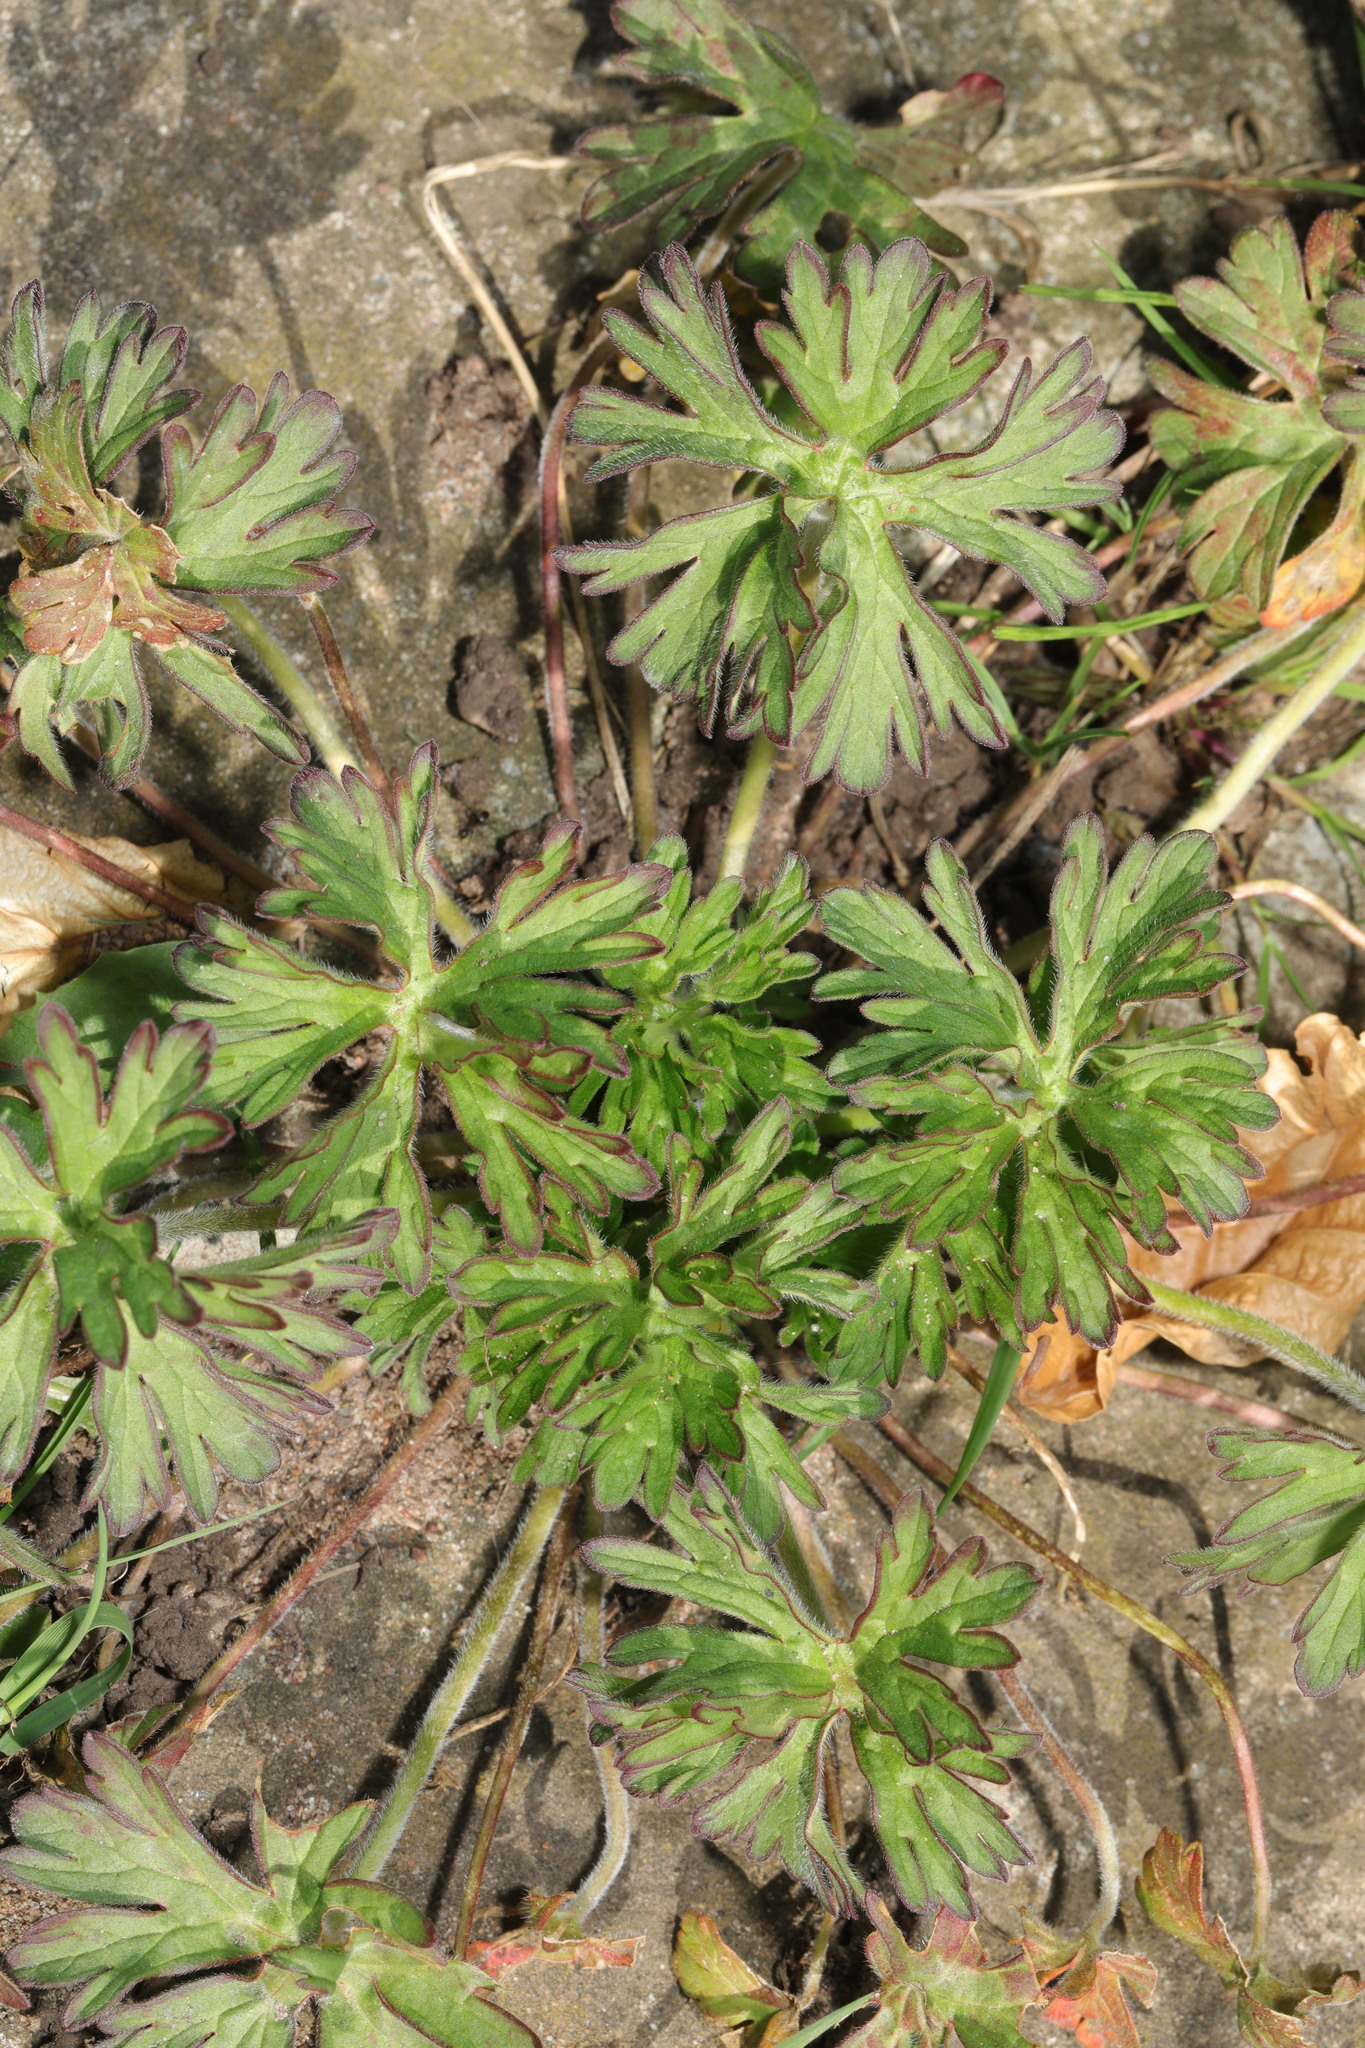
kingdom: Plantae
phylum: Tracheophyta
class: Magnoliopsida
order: Geraniales
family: Geraniaceae
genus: Geranium
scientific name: Geranium dissectum
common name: Cut-leaved crane's-bill
